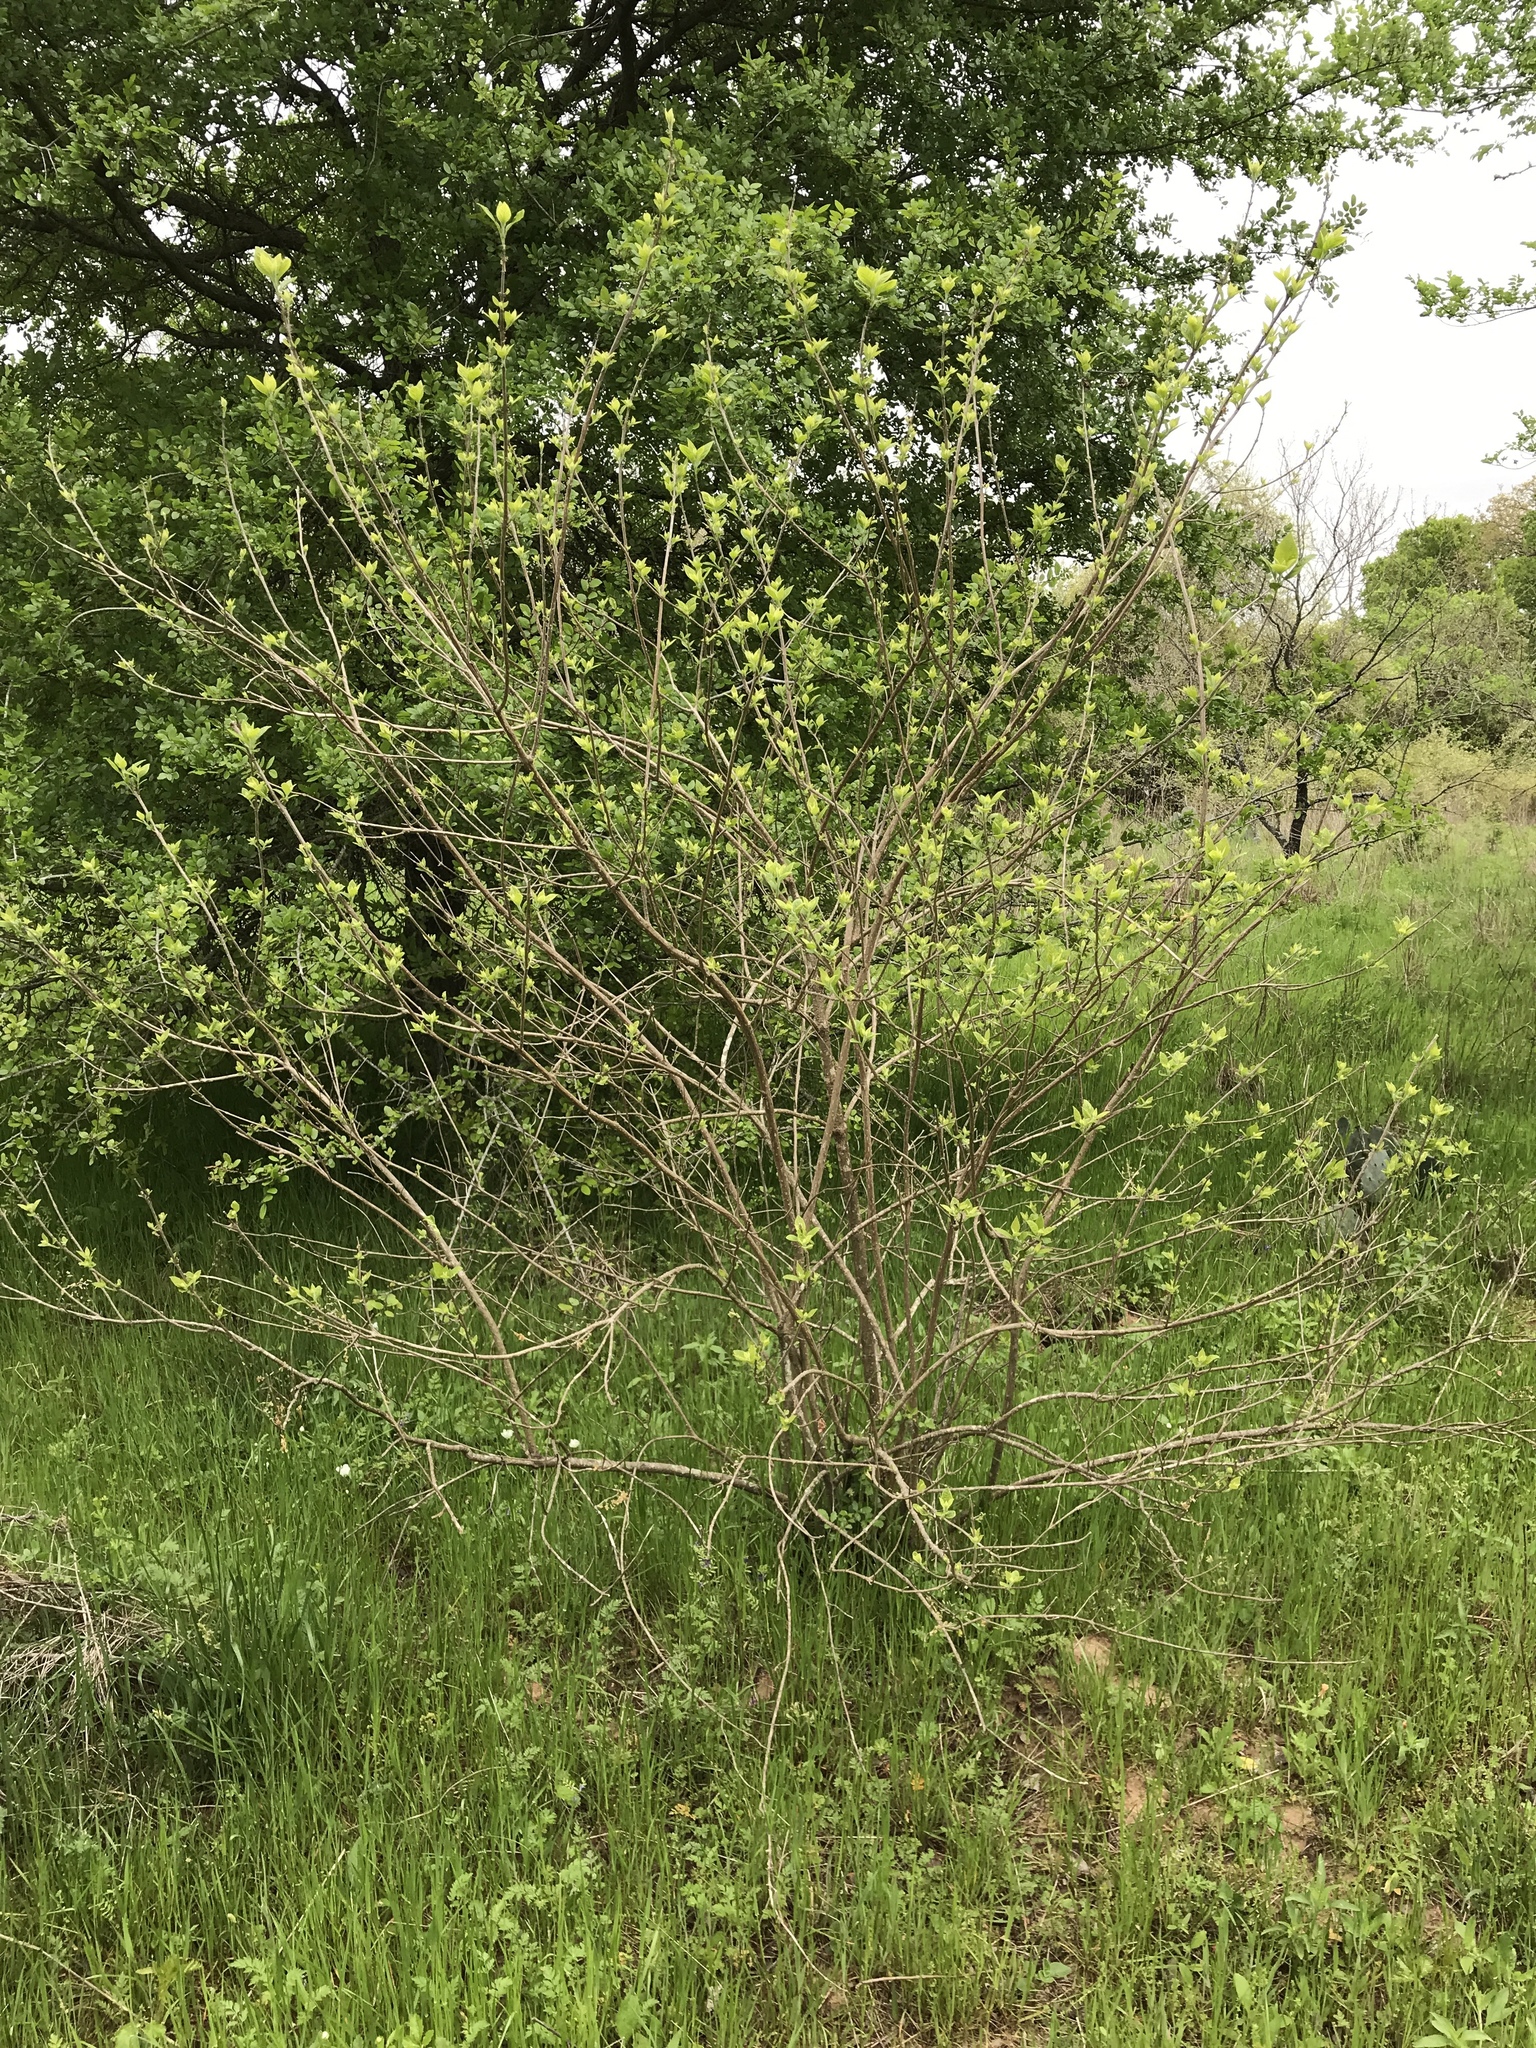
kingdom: Plantae
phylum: Tracheophyta
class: Magnoliopsida
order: Lamiales
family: Lamiaceae
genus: Callicarpa
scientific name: Callicarpa americana
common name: American beautyberry
